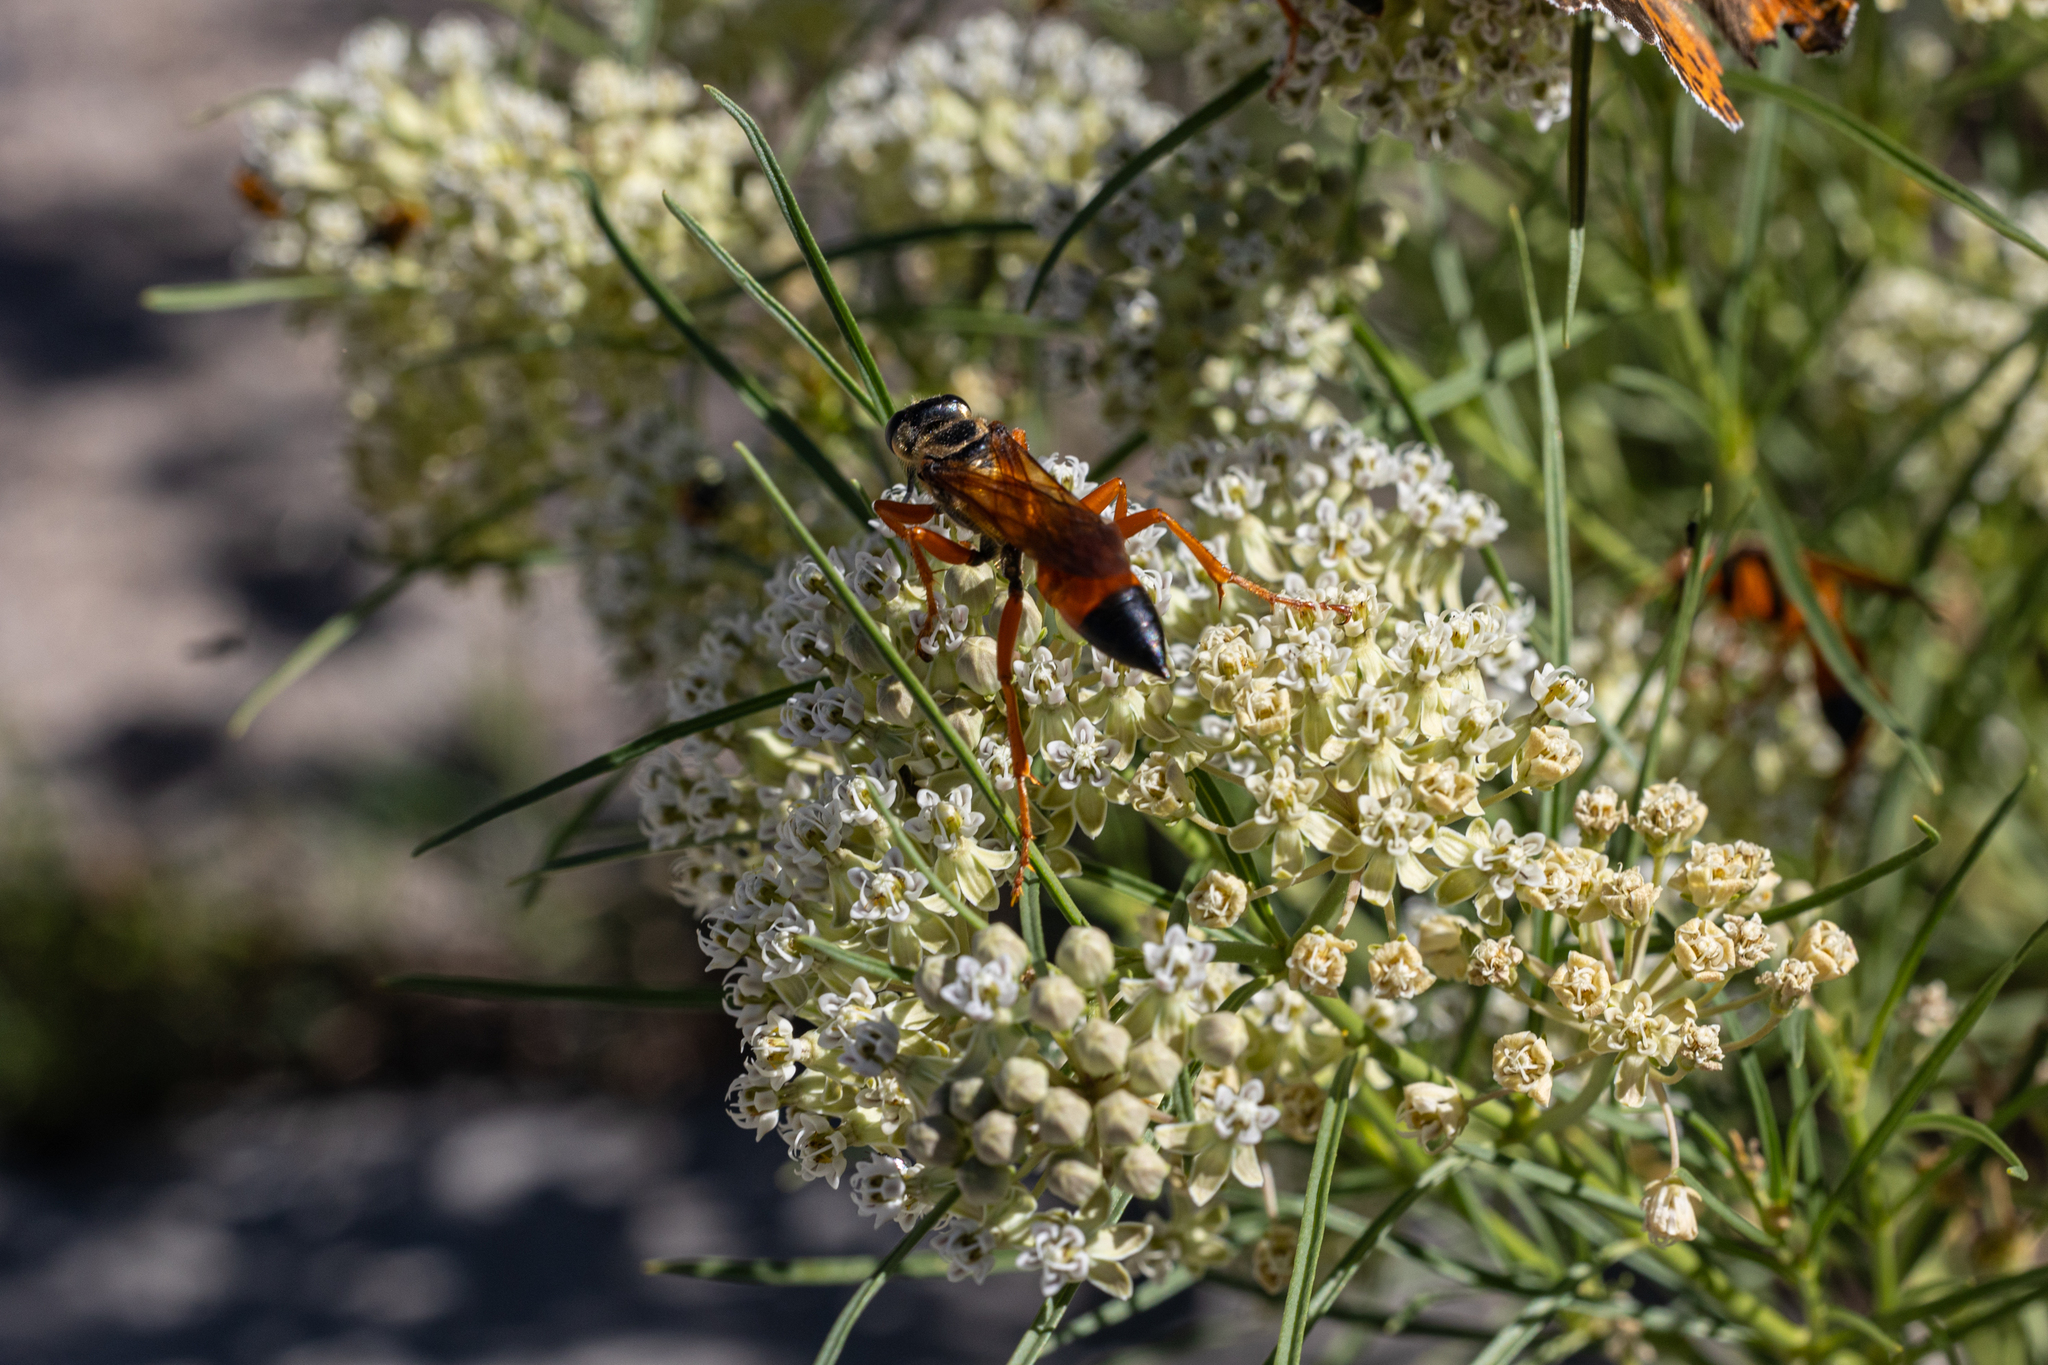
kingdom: Animalia
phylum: Arthropoda
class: Insecta
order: Hymenoptera
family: Sphecidae
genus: Sphex
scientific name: Sphex ichneumoneus
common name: Great golden digger wasp
